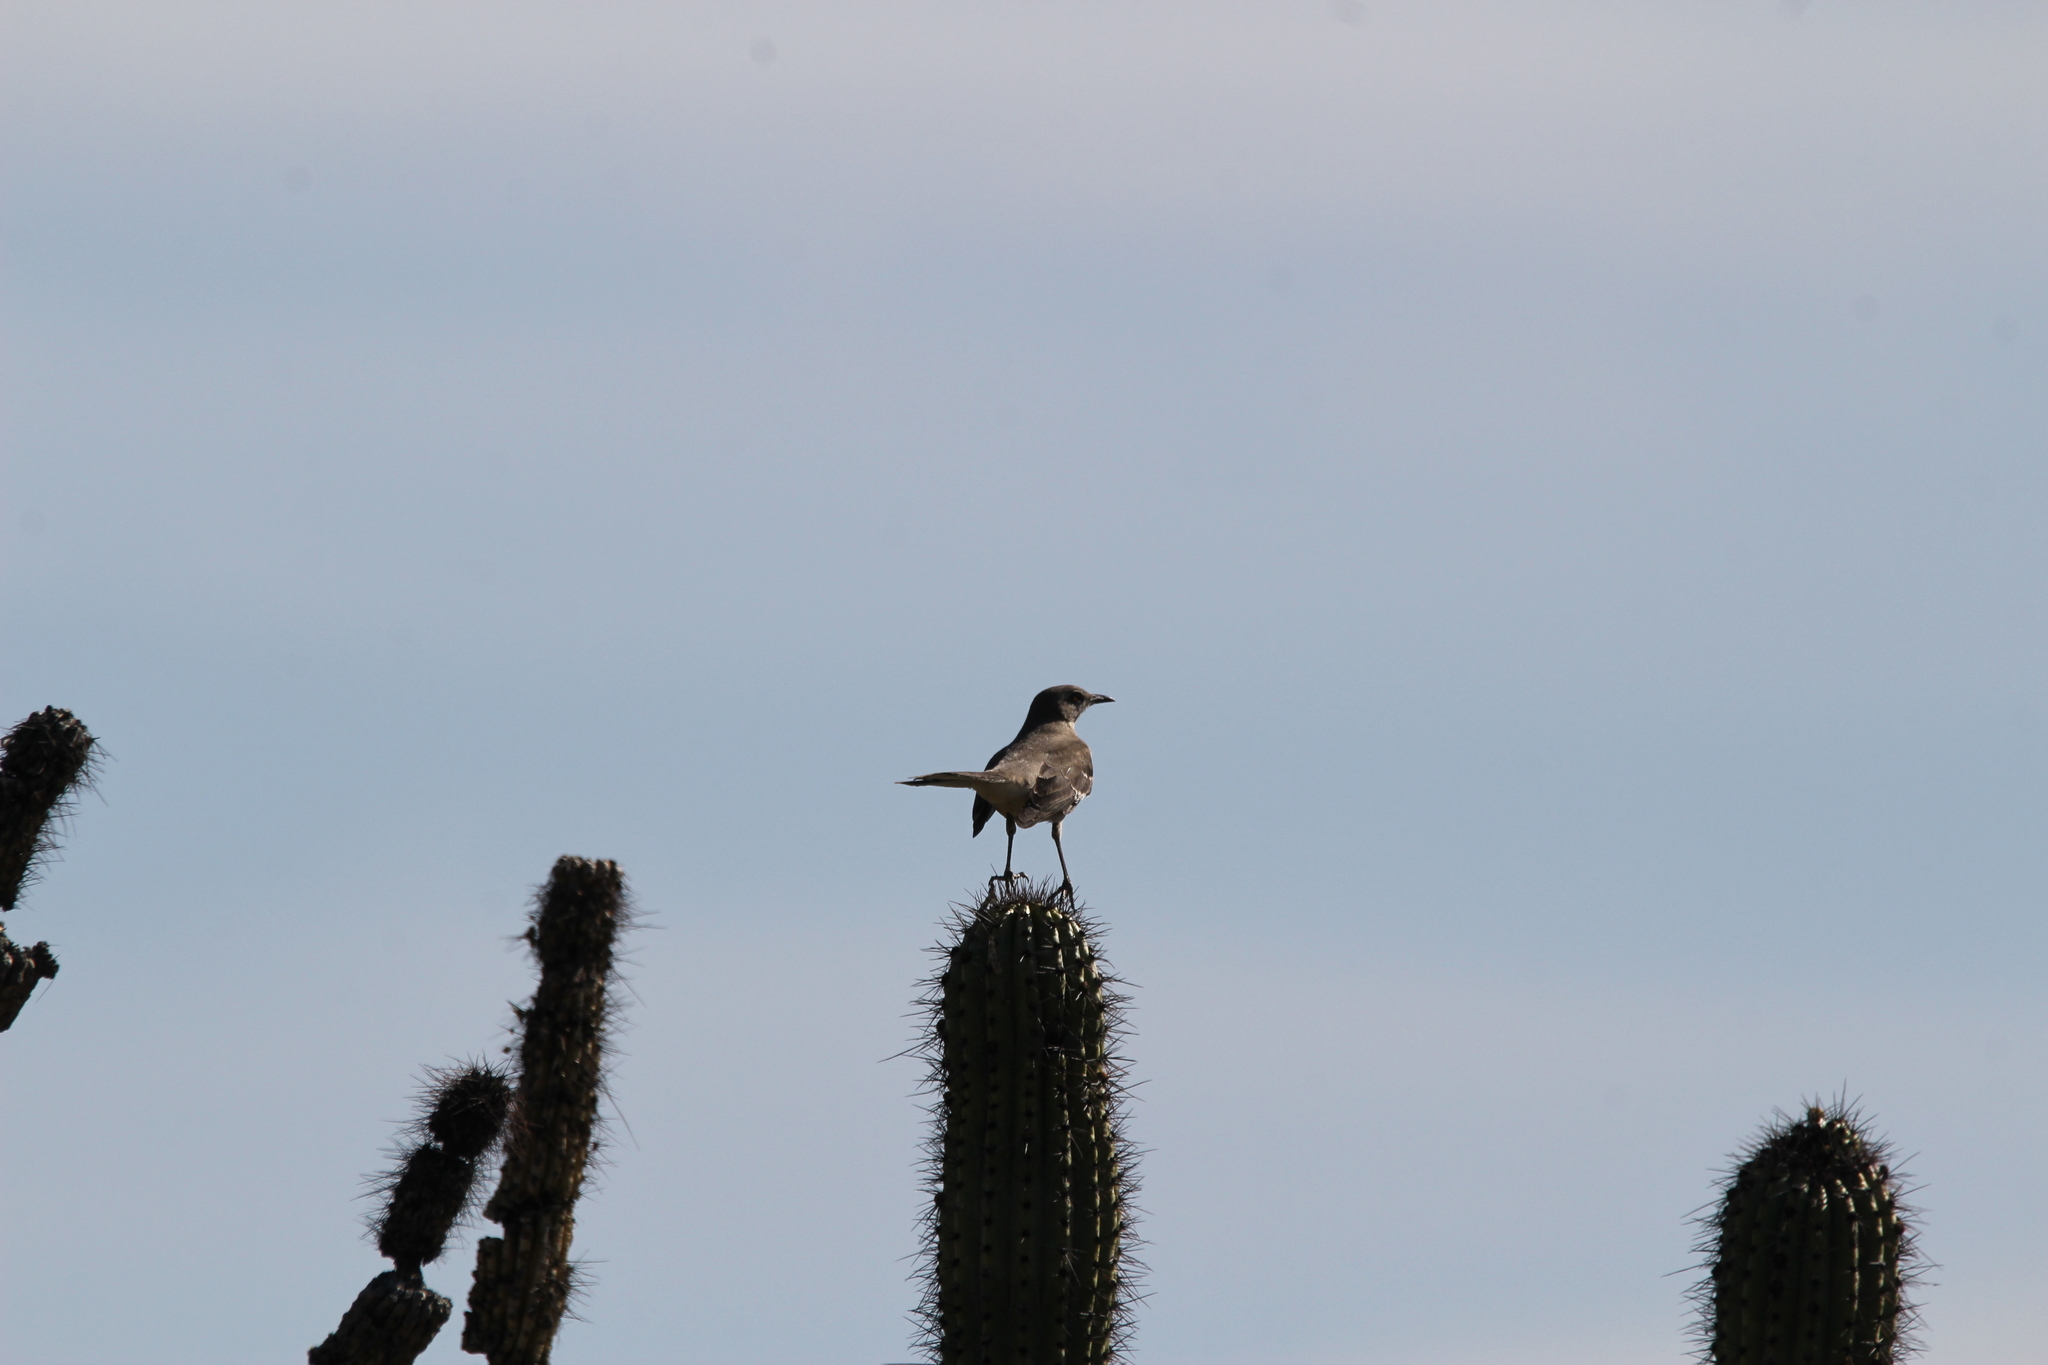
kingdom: Animalia
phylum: Chordata
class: Aves
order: Passeriformes
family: Mimidae
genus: Mimus
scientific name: Mimus polyglottos
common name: Northern mockingbird
